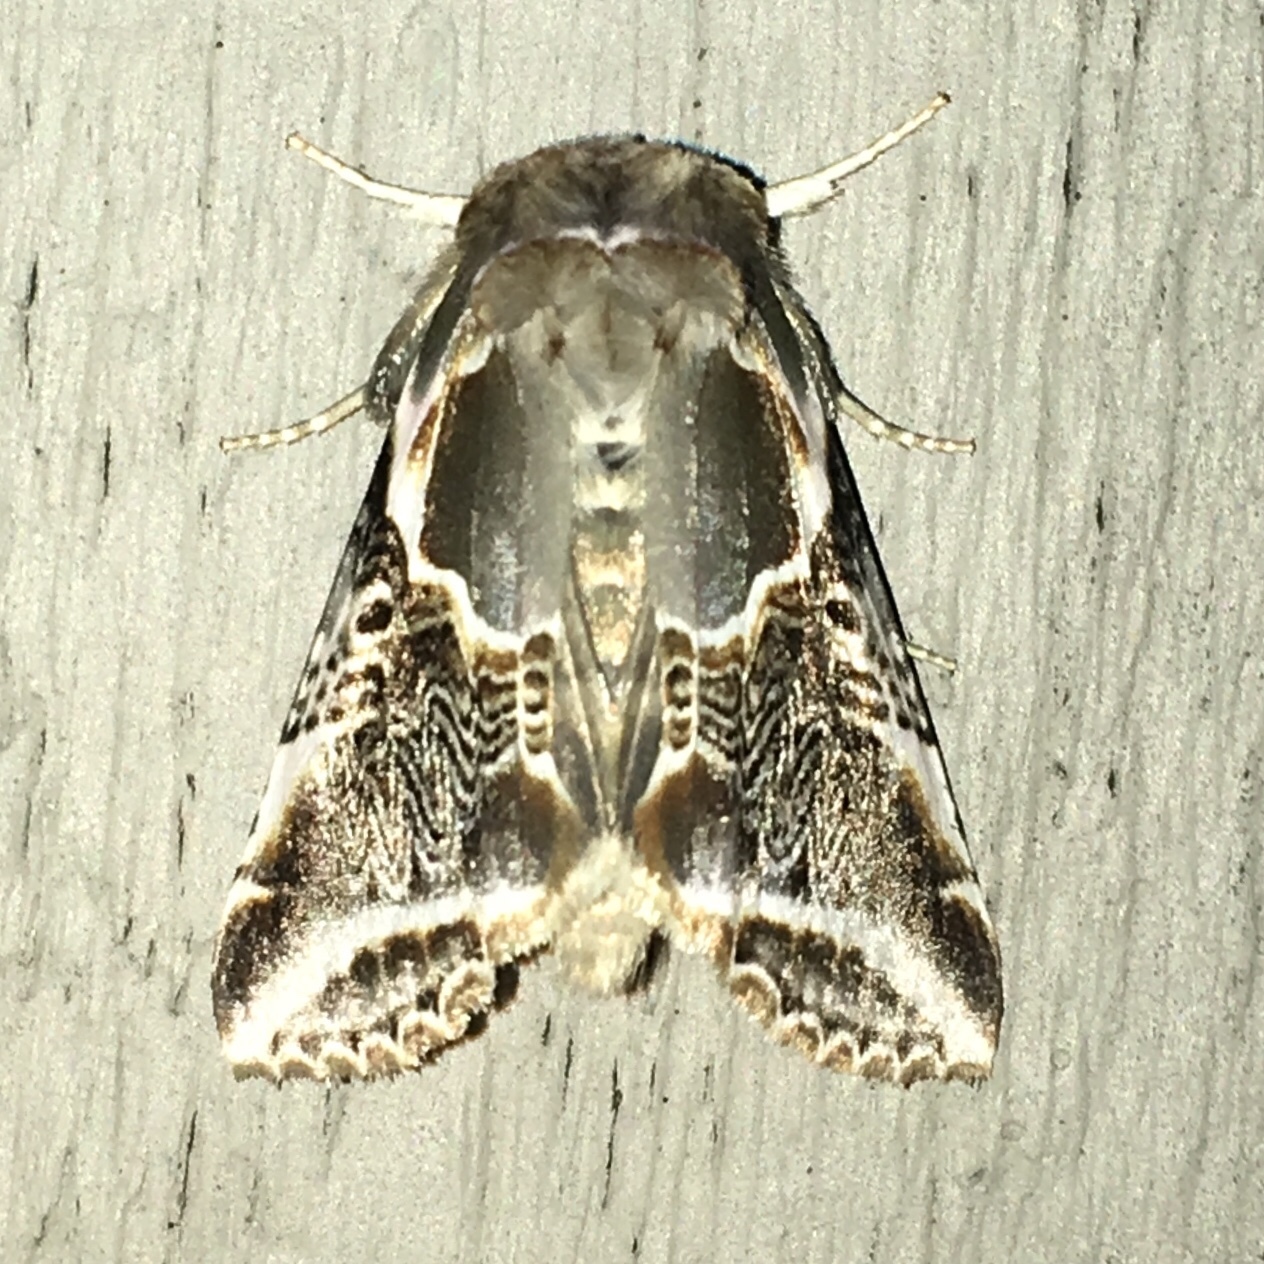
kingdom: Animalia
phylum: Arthropoda
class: Insecta
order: Lepidoptera
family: Drepanidae
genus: Habrosyne
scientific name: Habrosyne scripta
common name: Lettered habrosyne moth
